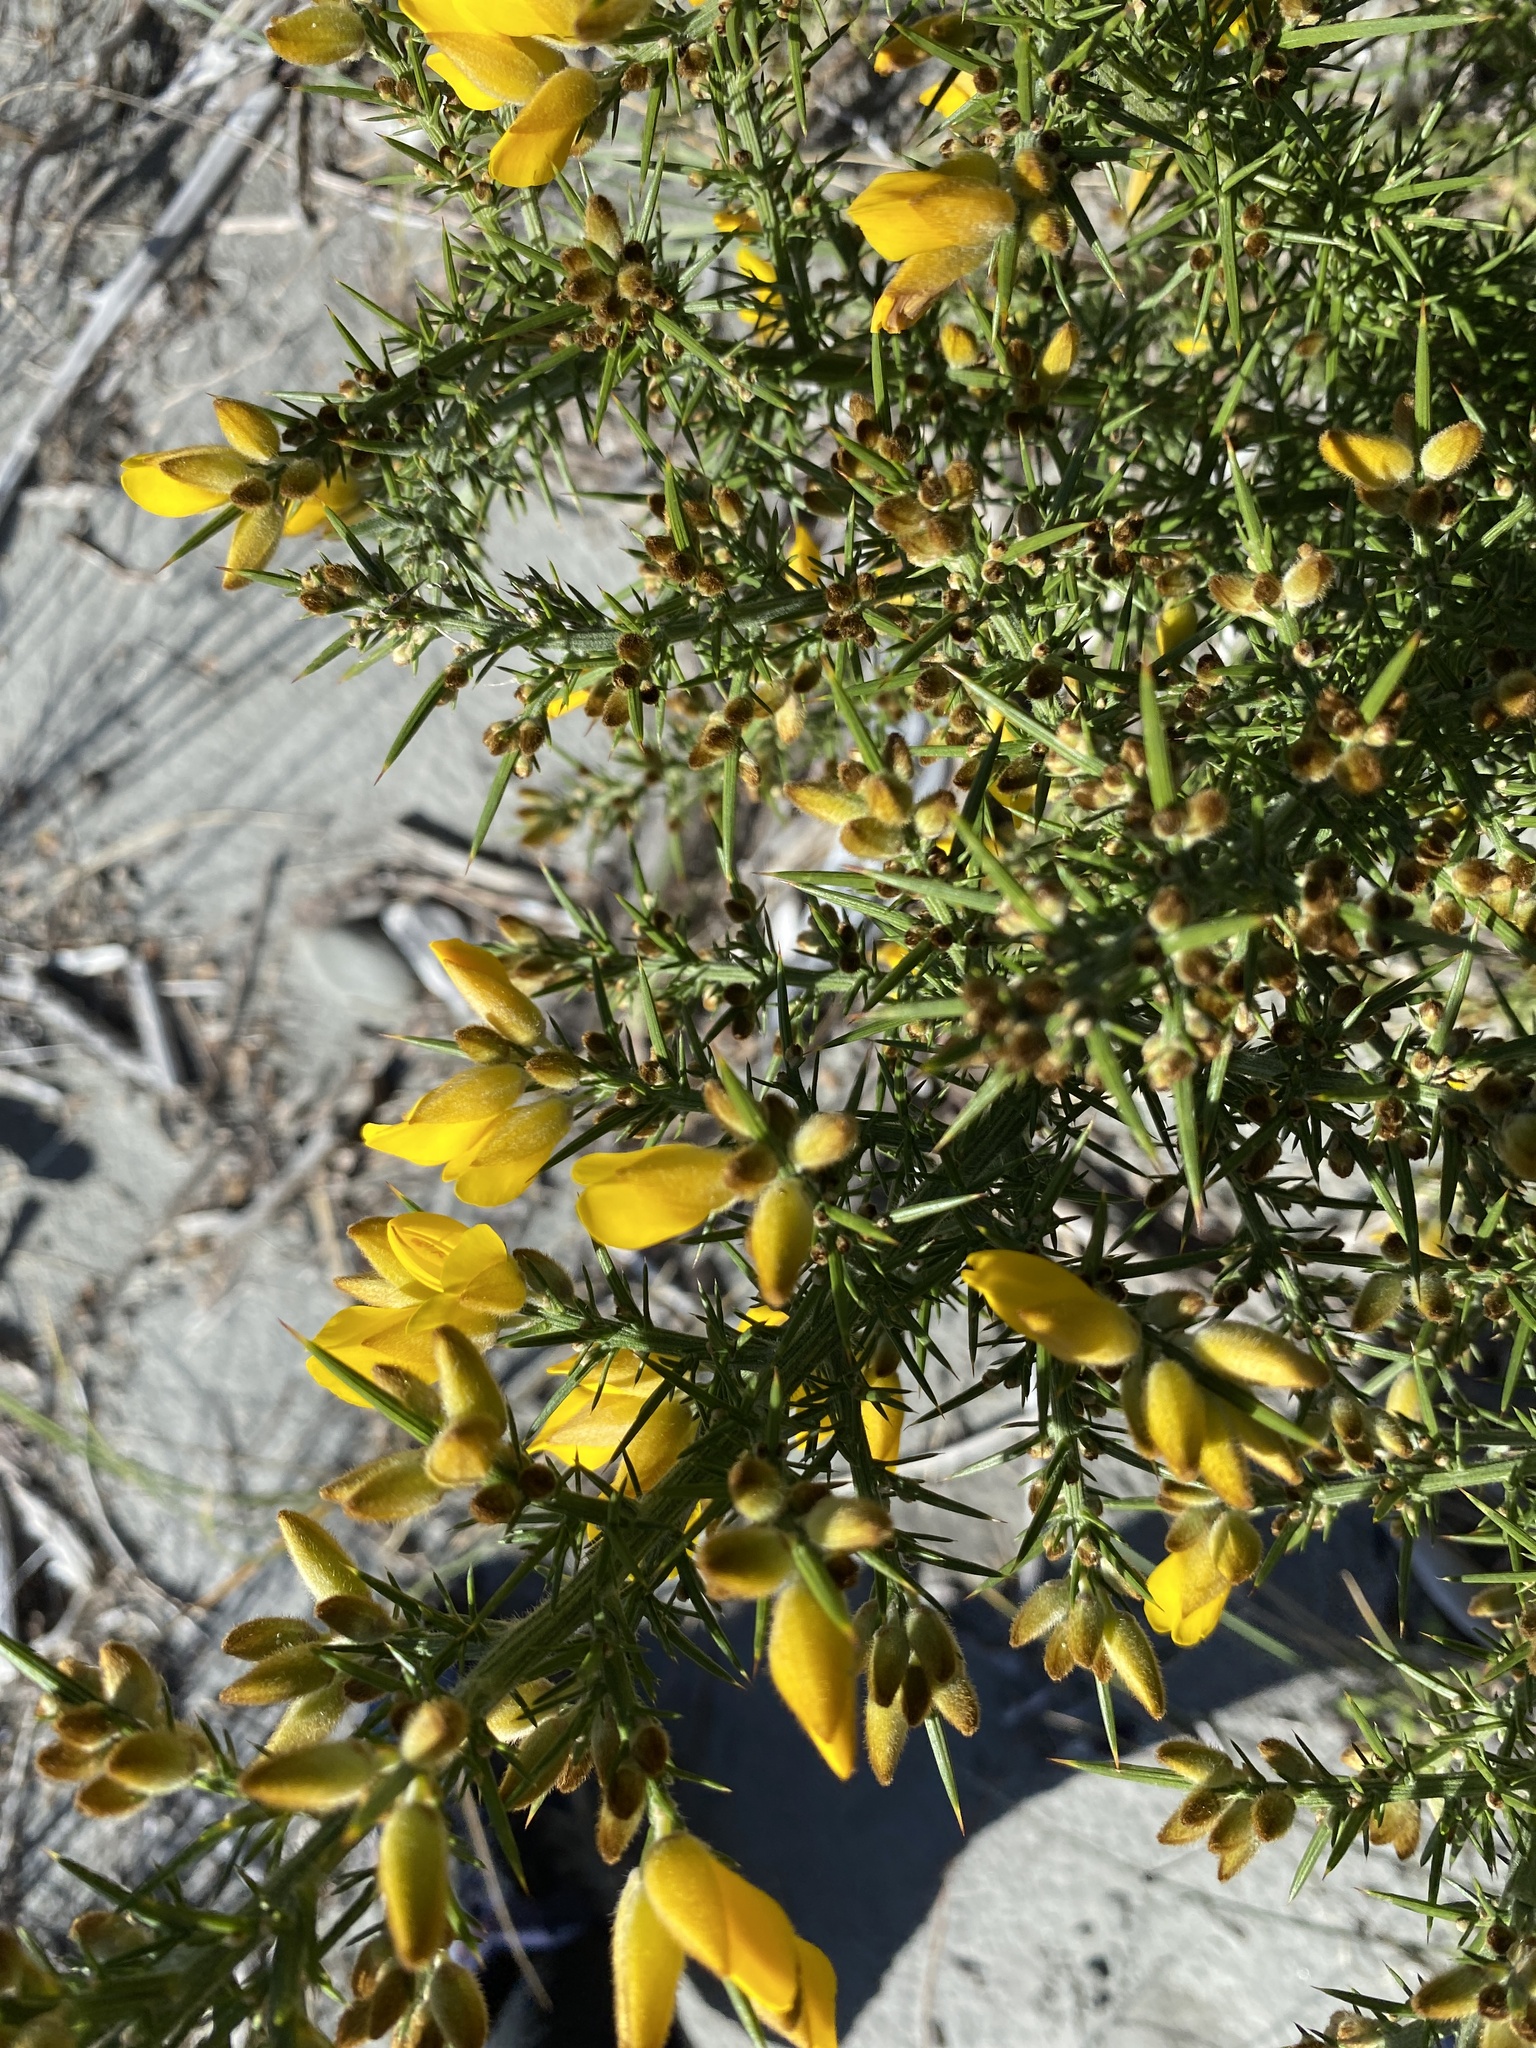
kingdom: Plantae
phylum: Tracheophyta
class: Magnoliopsida
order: Fabales
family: Fabaceae
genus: Ulex
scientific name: Ulex europaeus
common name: Common gorse
